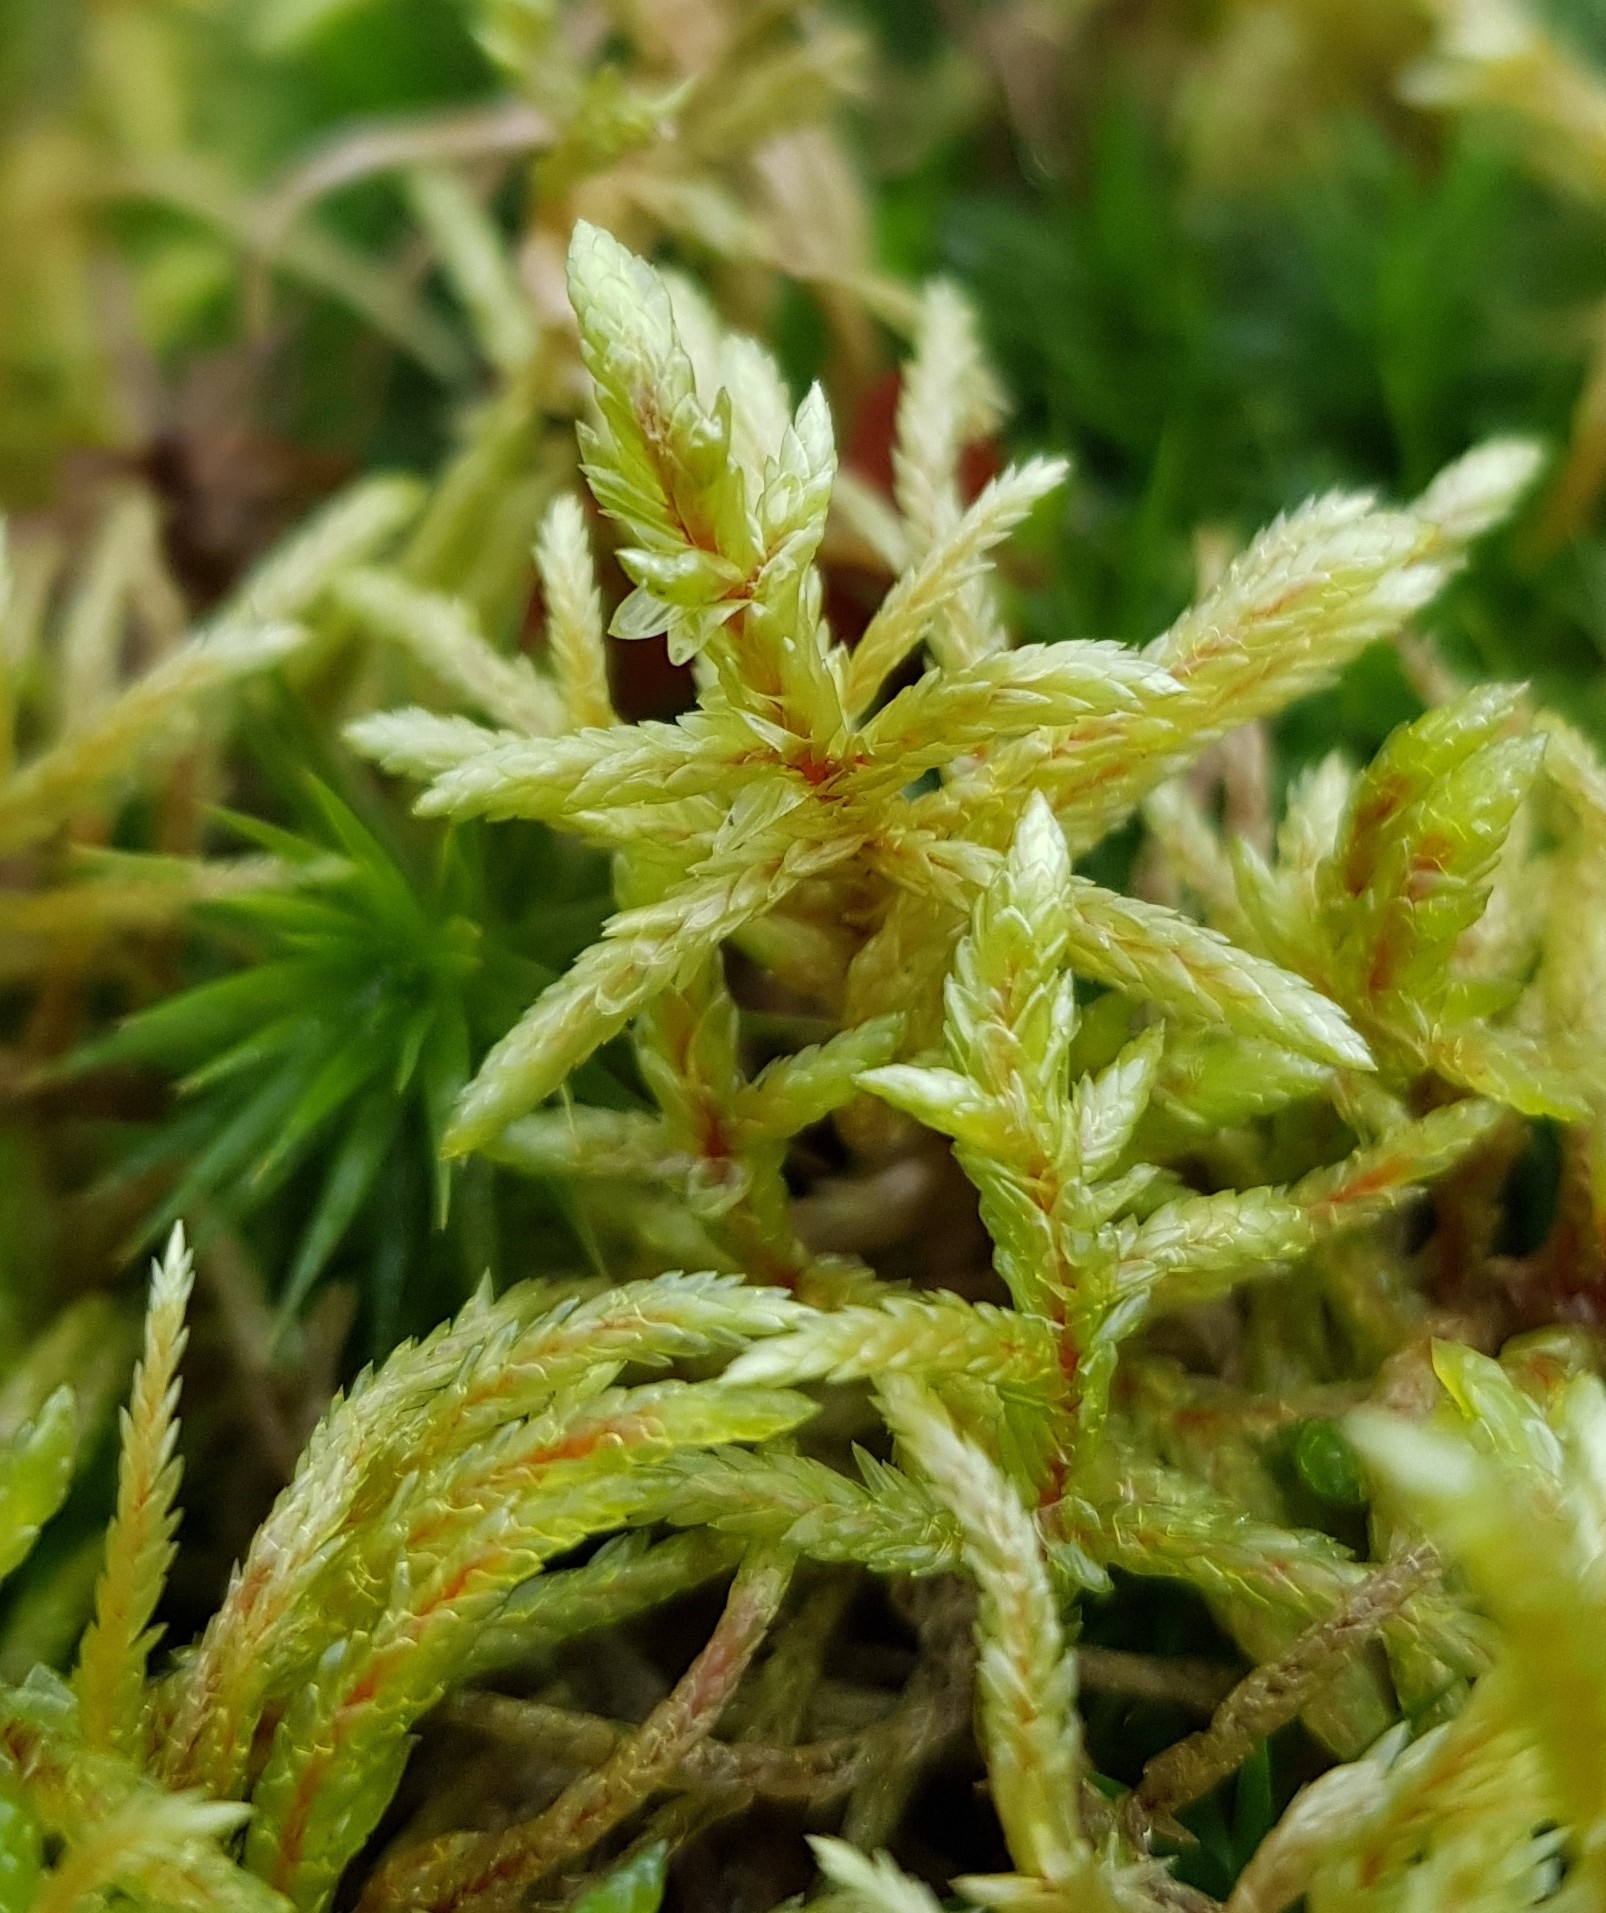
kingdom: Plantae
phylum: Bryophyta
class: Bryopsida
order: Hypnales
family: Hylocomiaceae
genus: Pleurozium
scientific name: Pleurozium schreberi
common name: Red-stemmed feather moss
